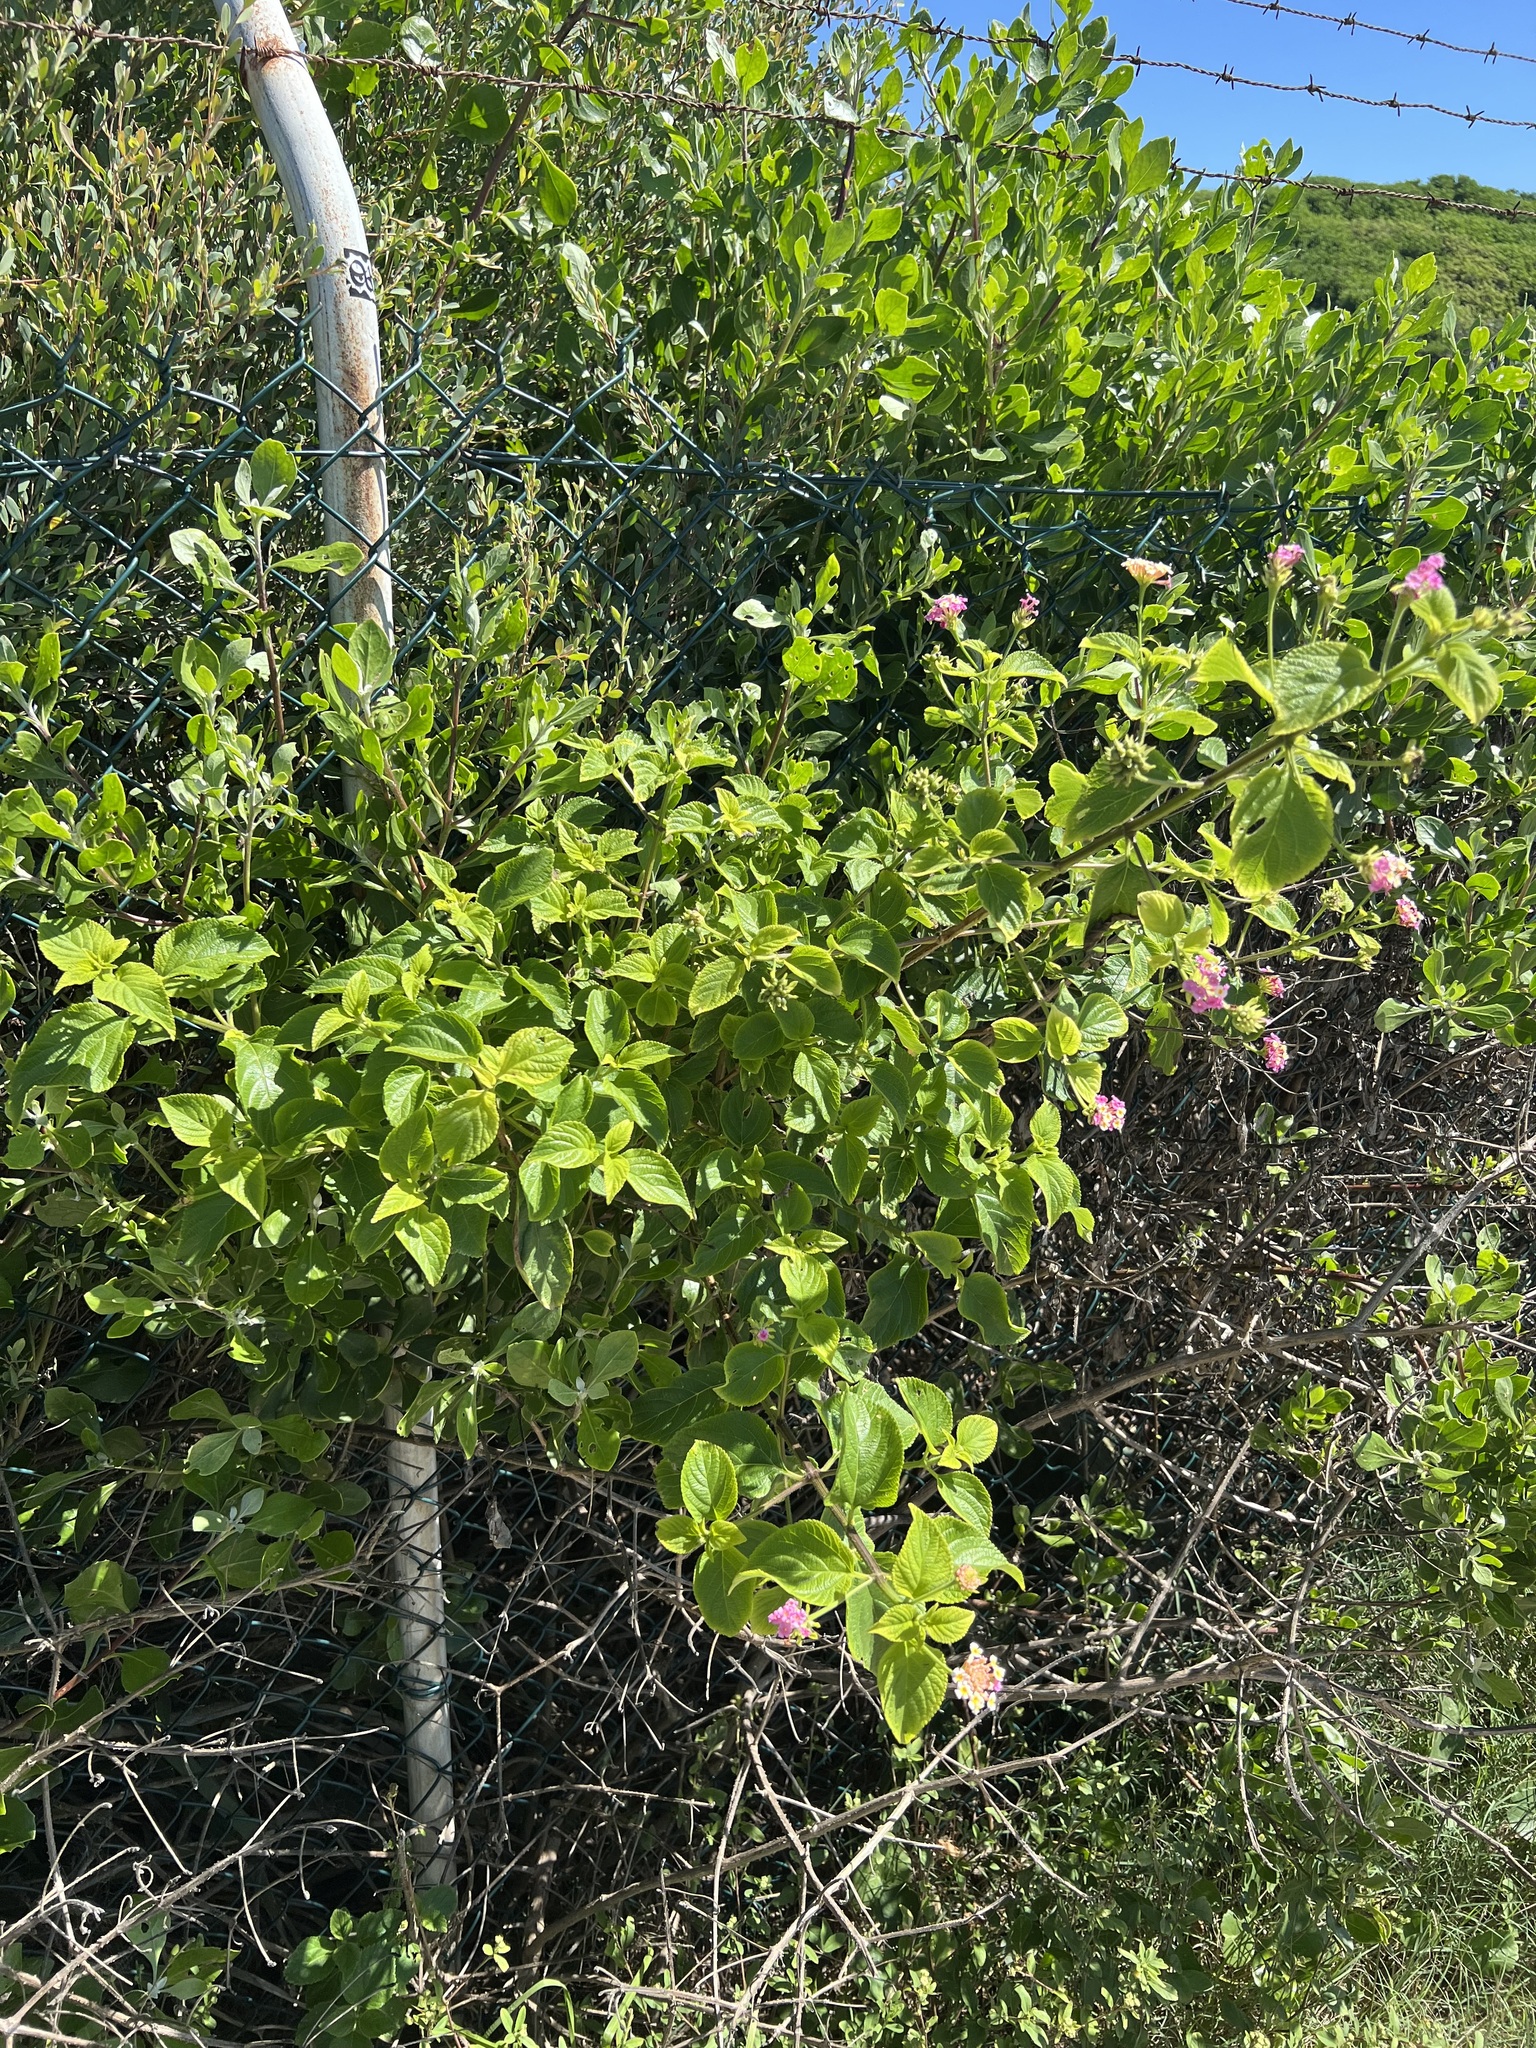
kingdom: Plantae
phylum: Tracheophyta
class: Magnoliopsida
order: Lamiales
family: Verbenaceae
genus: Lantana
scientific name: Lantana camara
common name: Lantana
